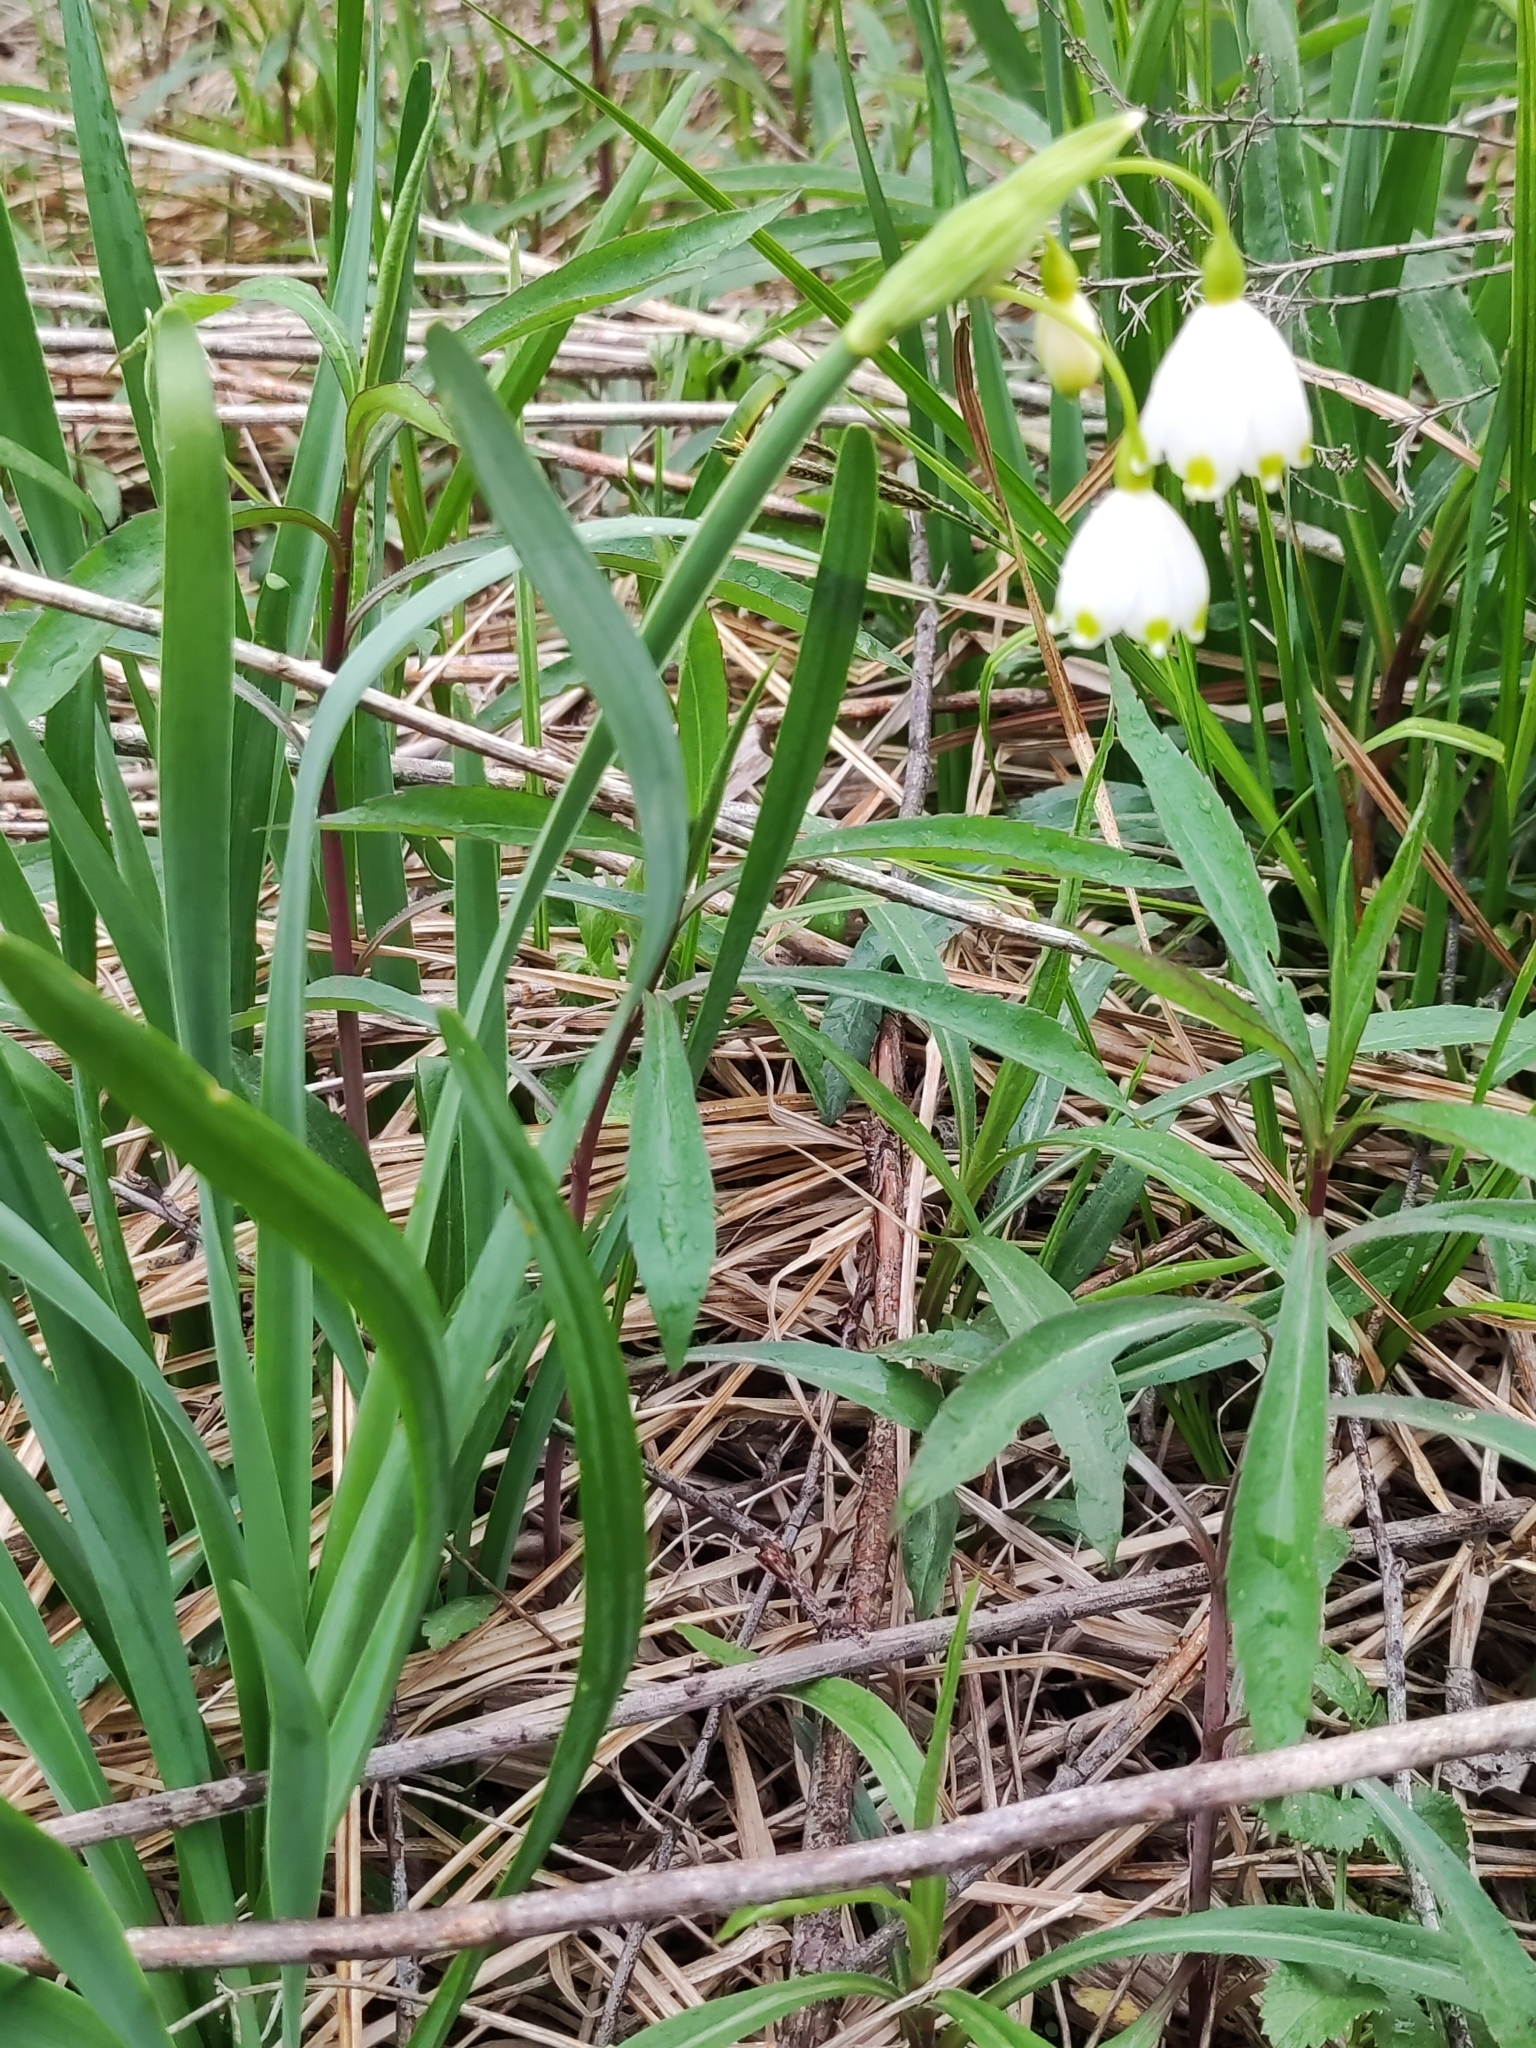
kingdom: Plantae
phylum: Tracheophyta
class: Liliopsida
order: Asparagales
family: Amaryllidaceae
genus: Leucojum
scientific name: Leucojum aestivum
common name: Summer snowflake
